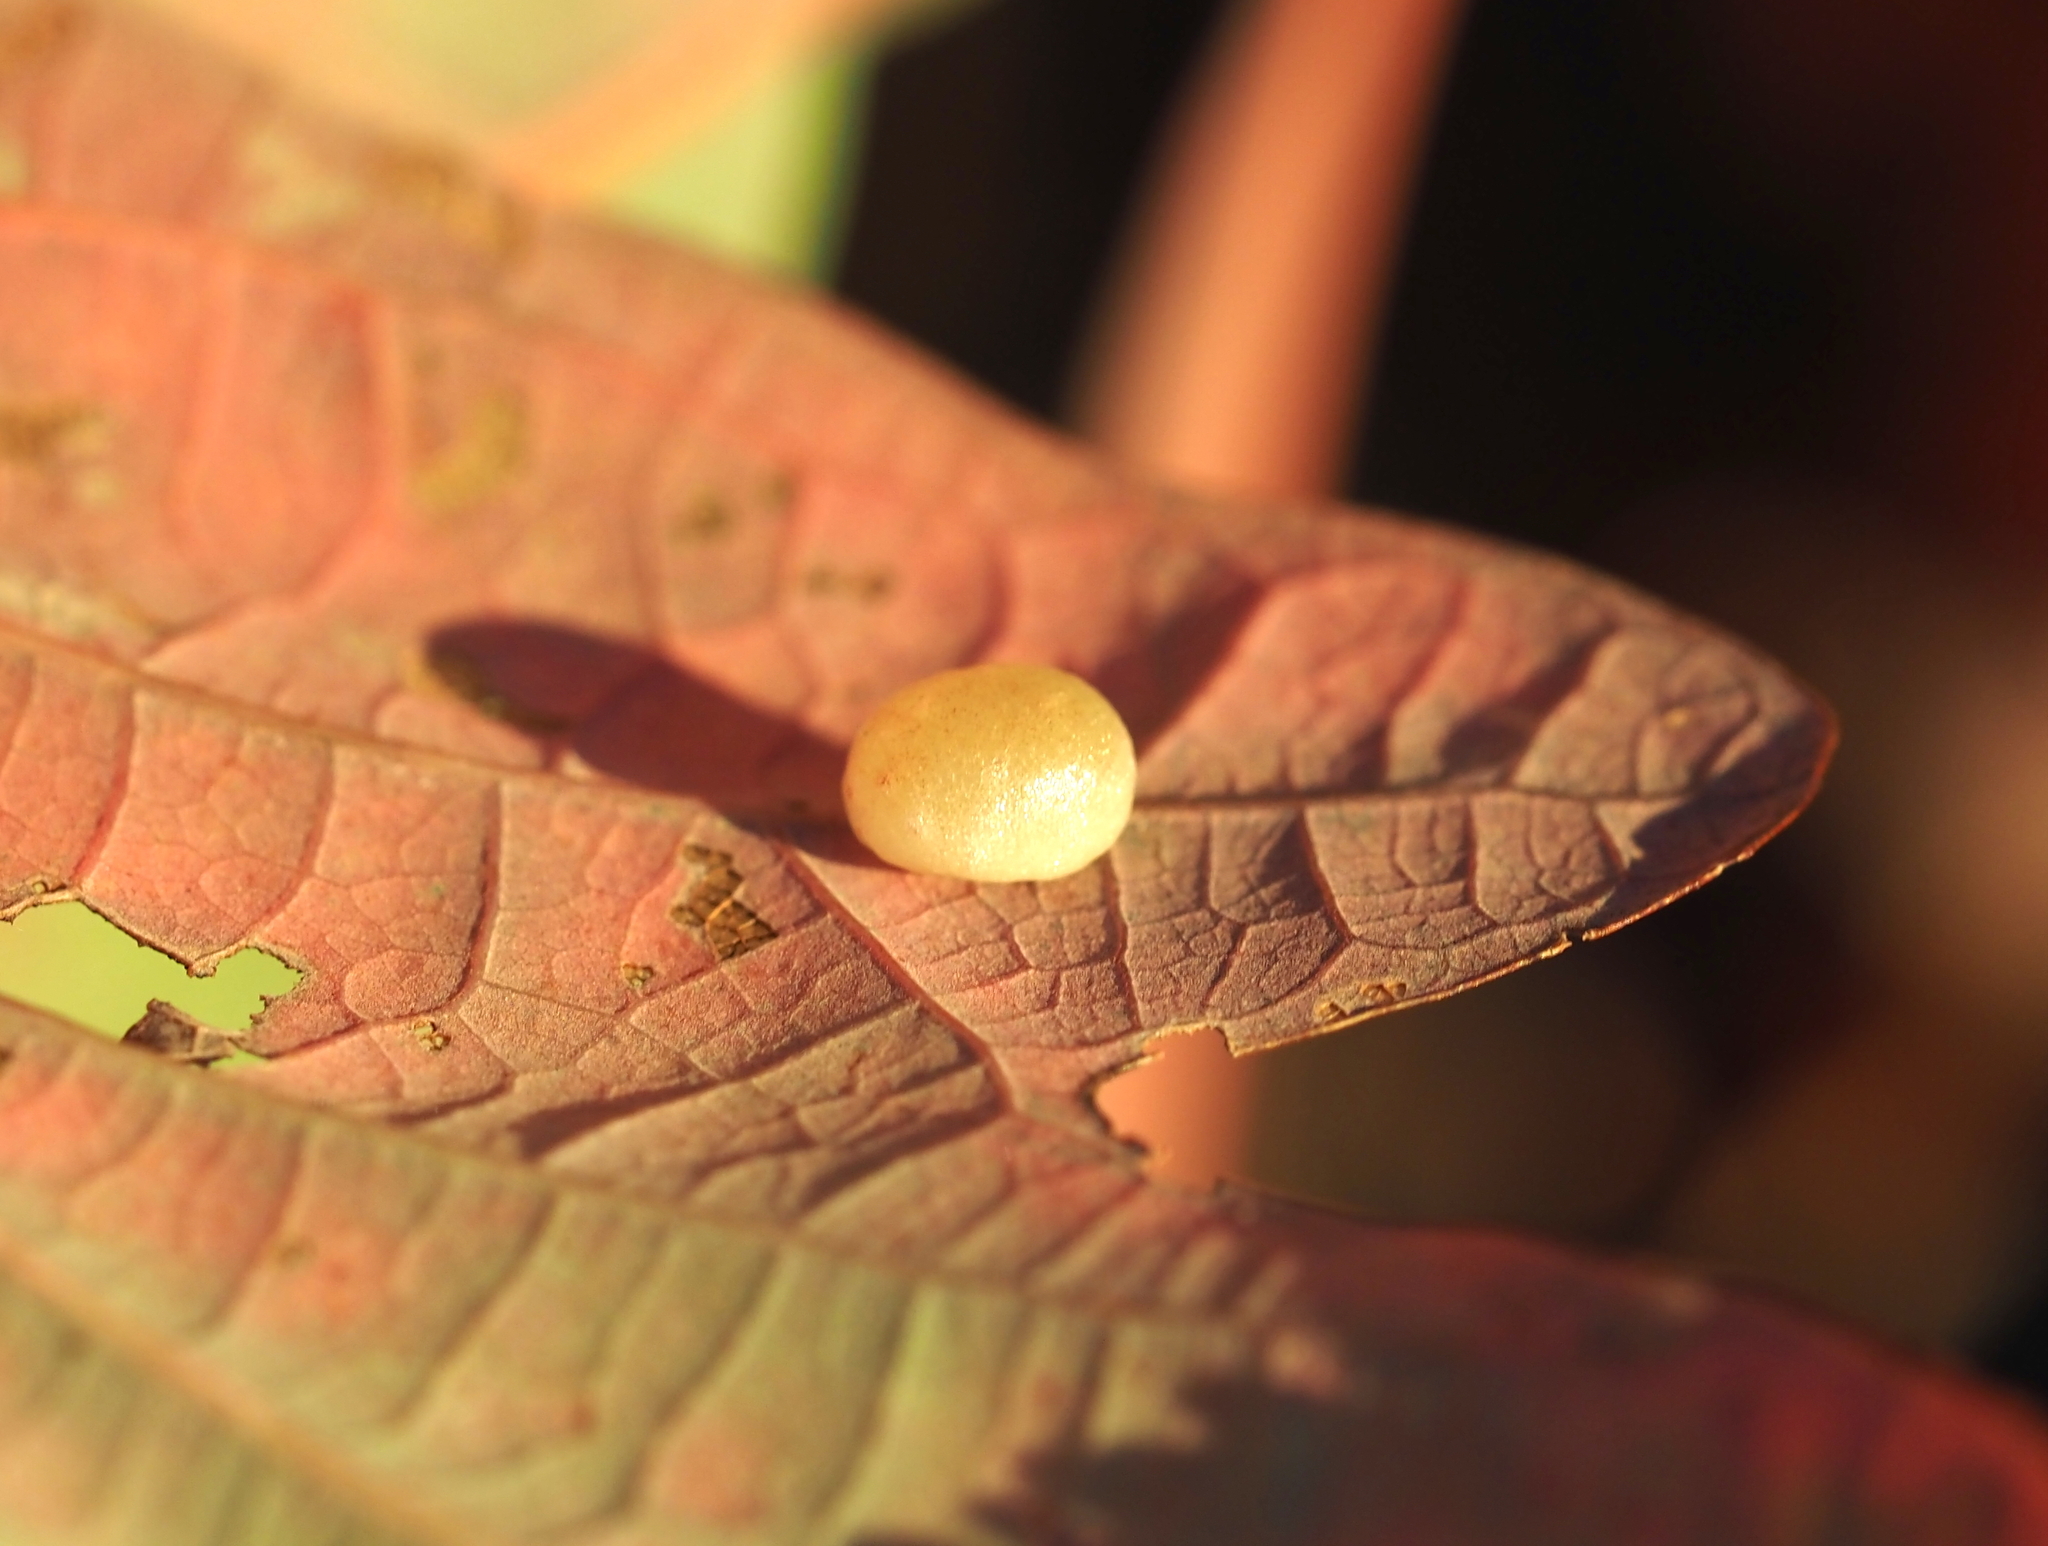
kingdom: Animalia
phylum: Arthropoda
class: Insecta
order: Hymenoptera
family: Cynipidae
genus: Phylloteras
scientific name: Phylloteras
